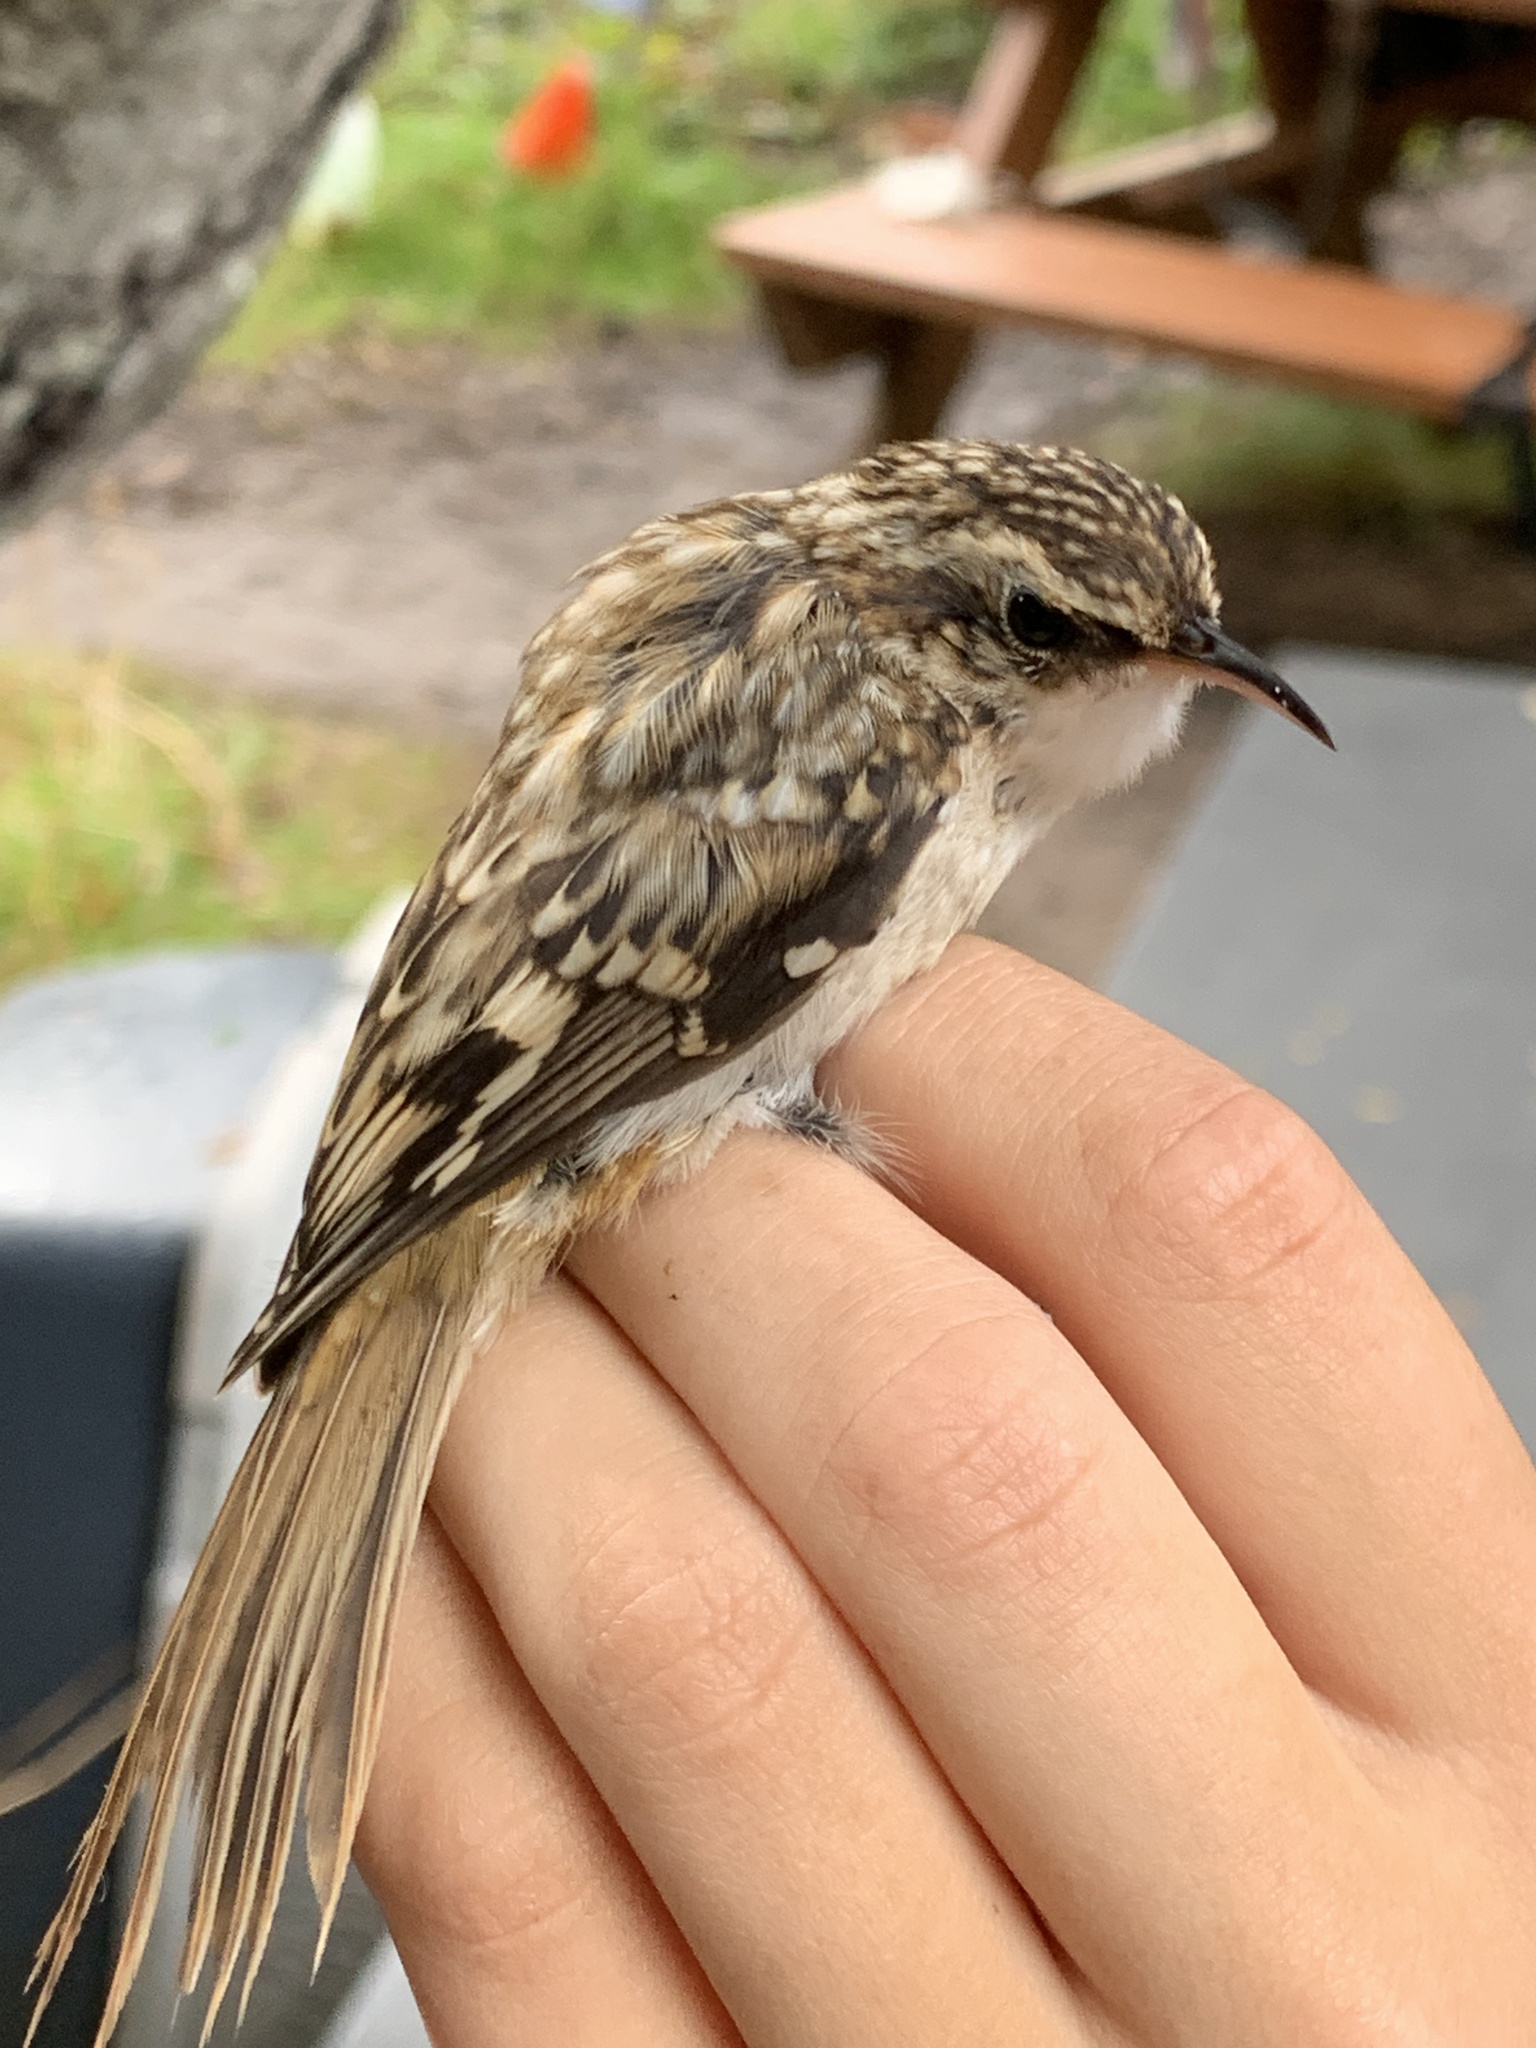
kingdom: Animalia
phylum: Chordata
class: Aves
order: Passeriformes
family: Certhiidae
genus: Certhia
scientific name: Certhia americana
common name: Brown creeper
